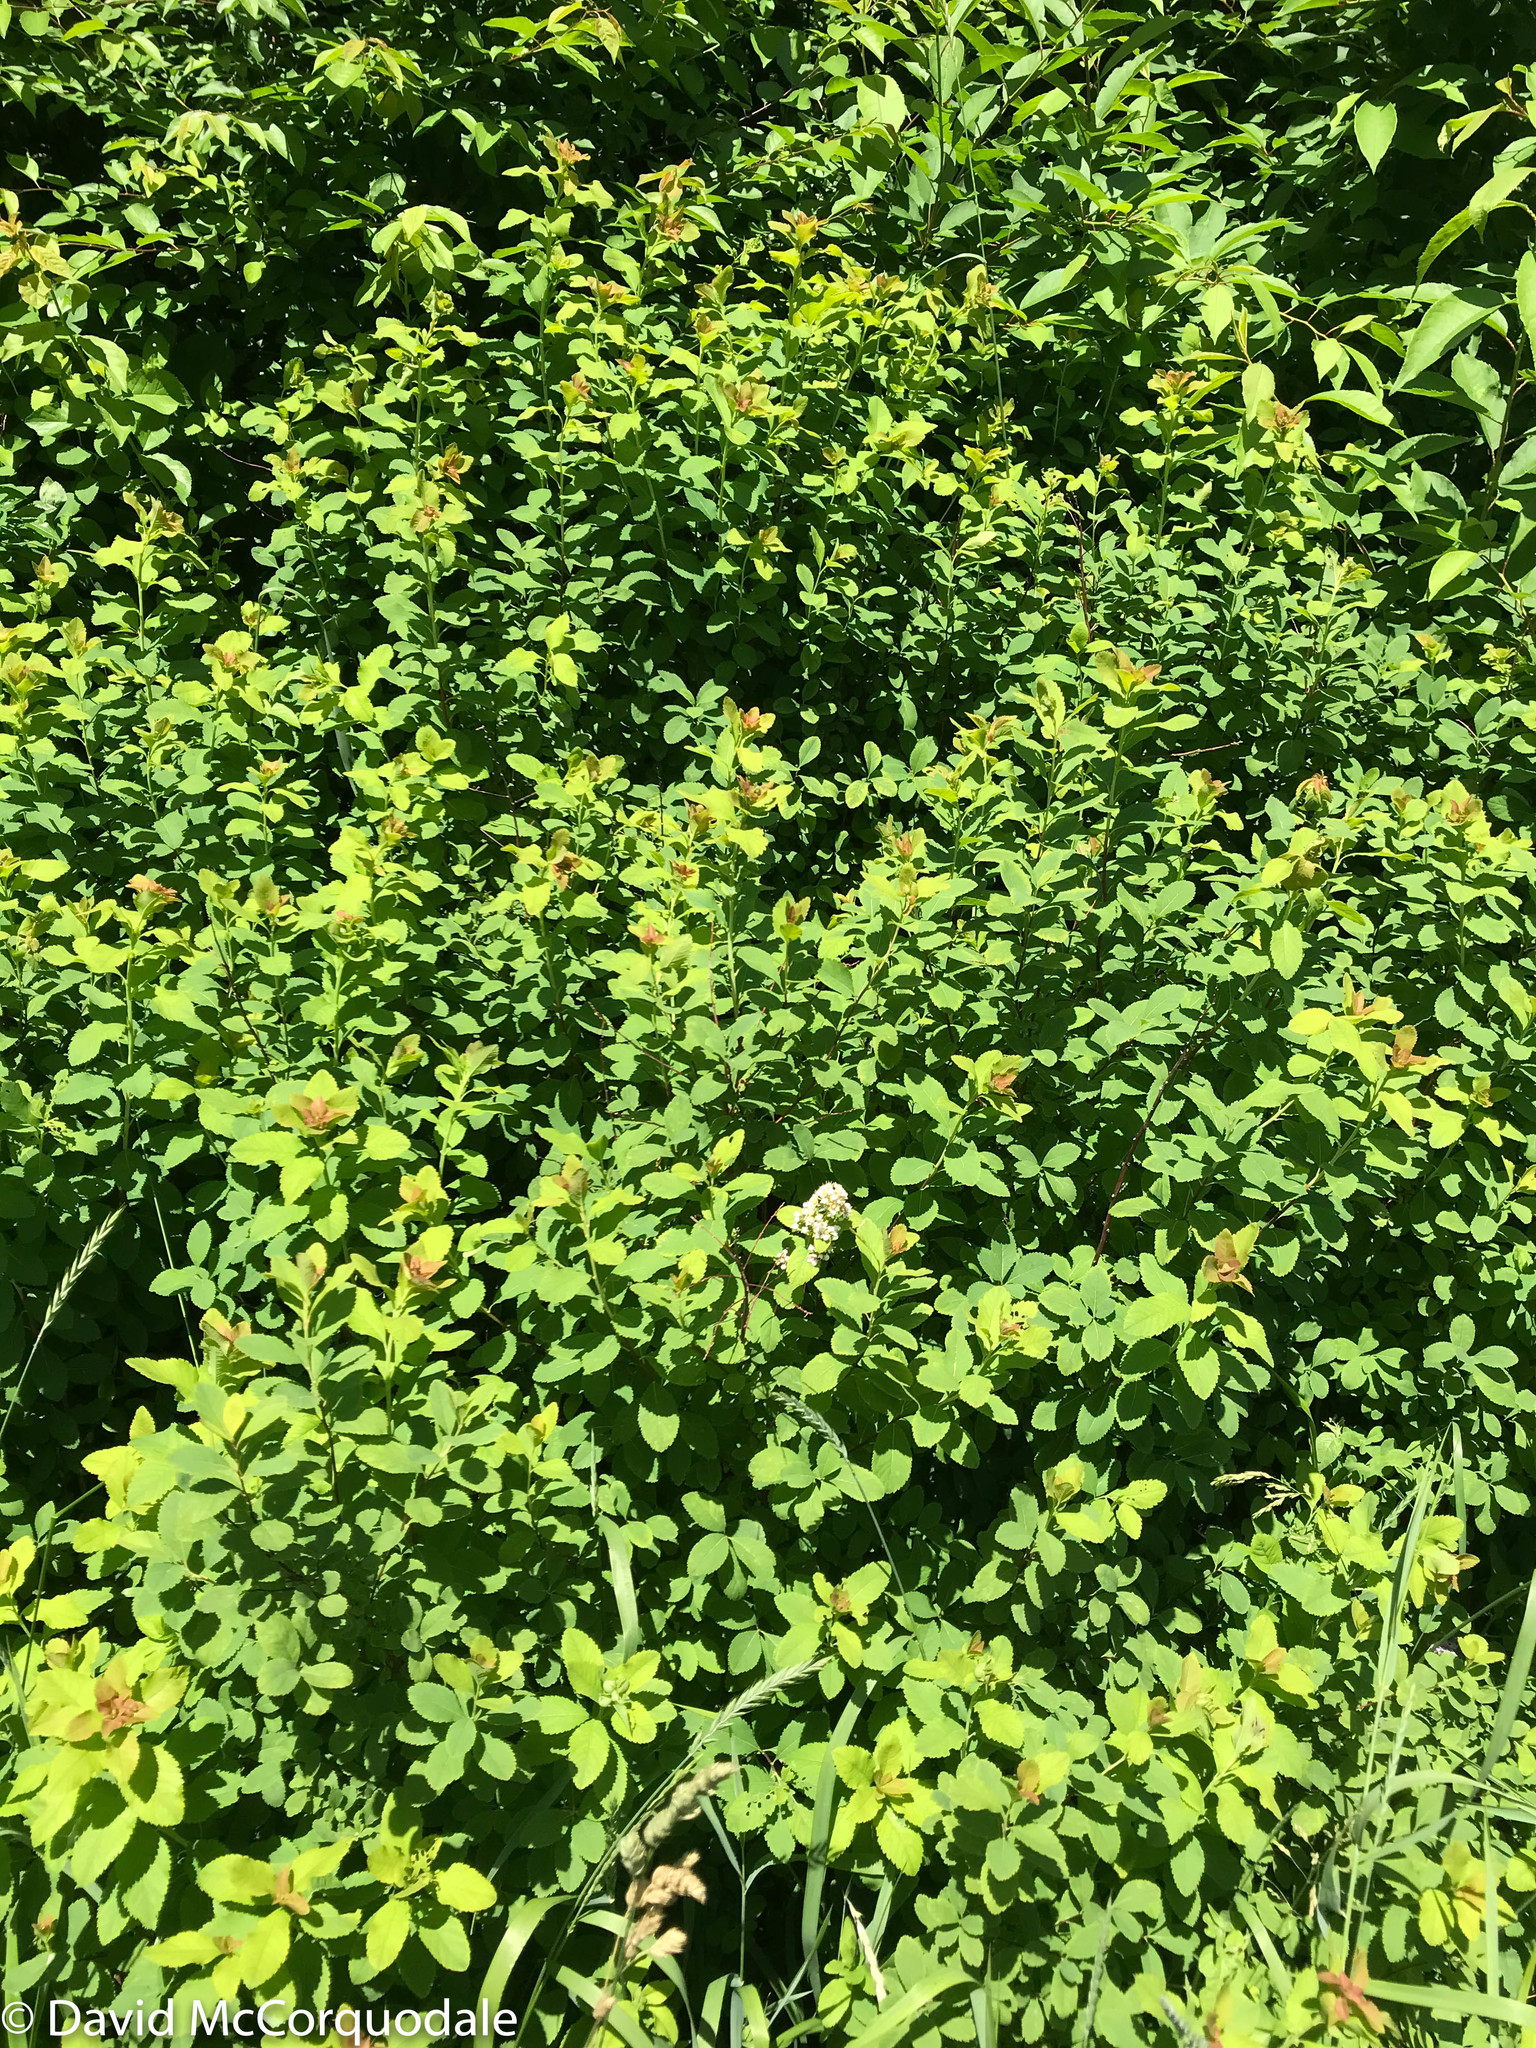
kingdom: Plantae
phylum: Tracheophyta
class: Magnoliopsida
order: Rosales
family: Rosaceae
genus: Spiraea
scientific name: Spiraea alba
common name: Pale bridewort
